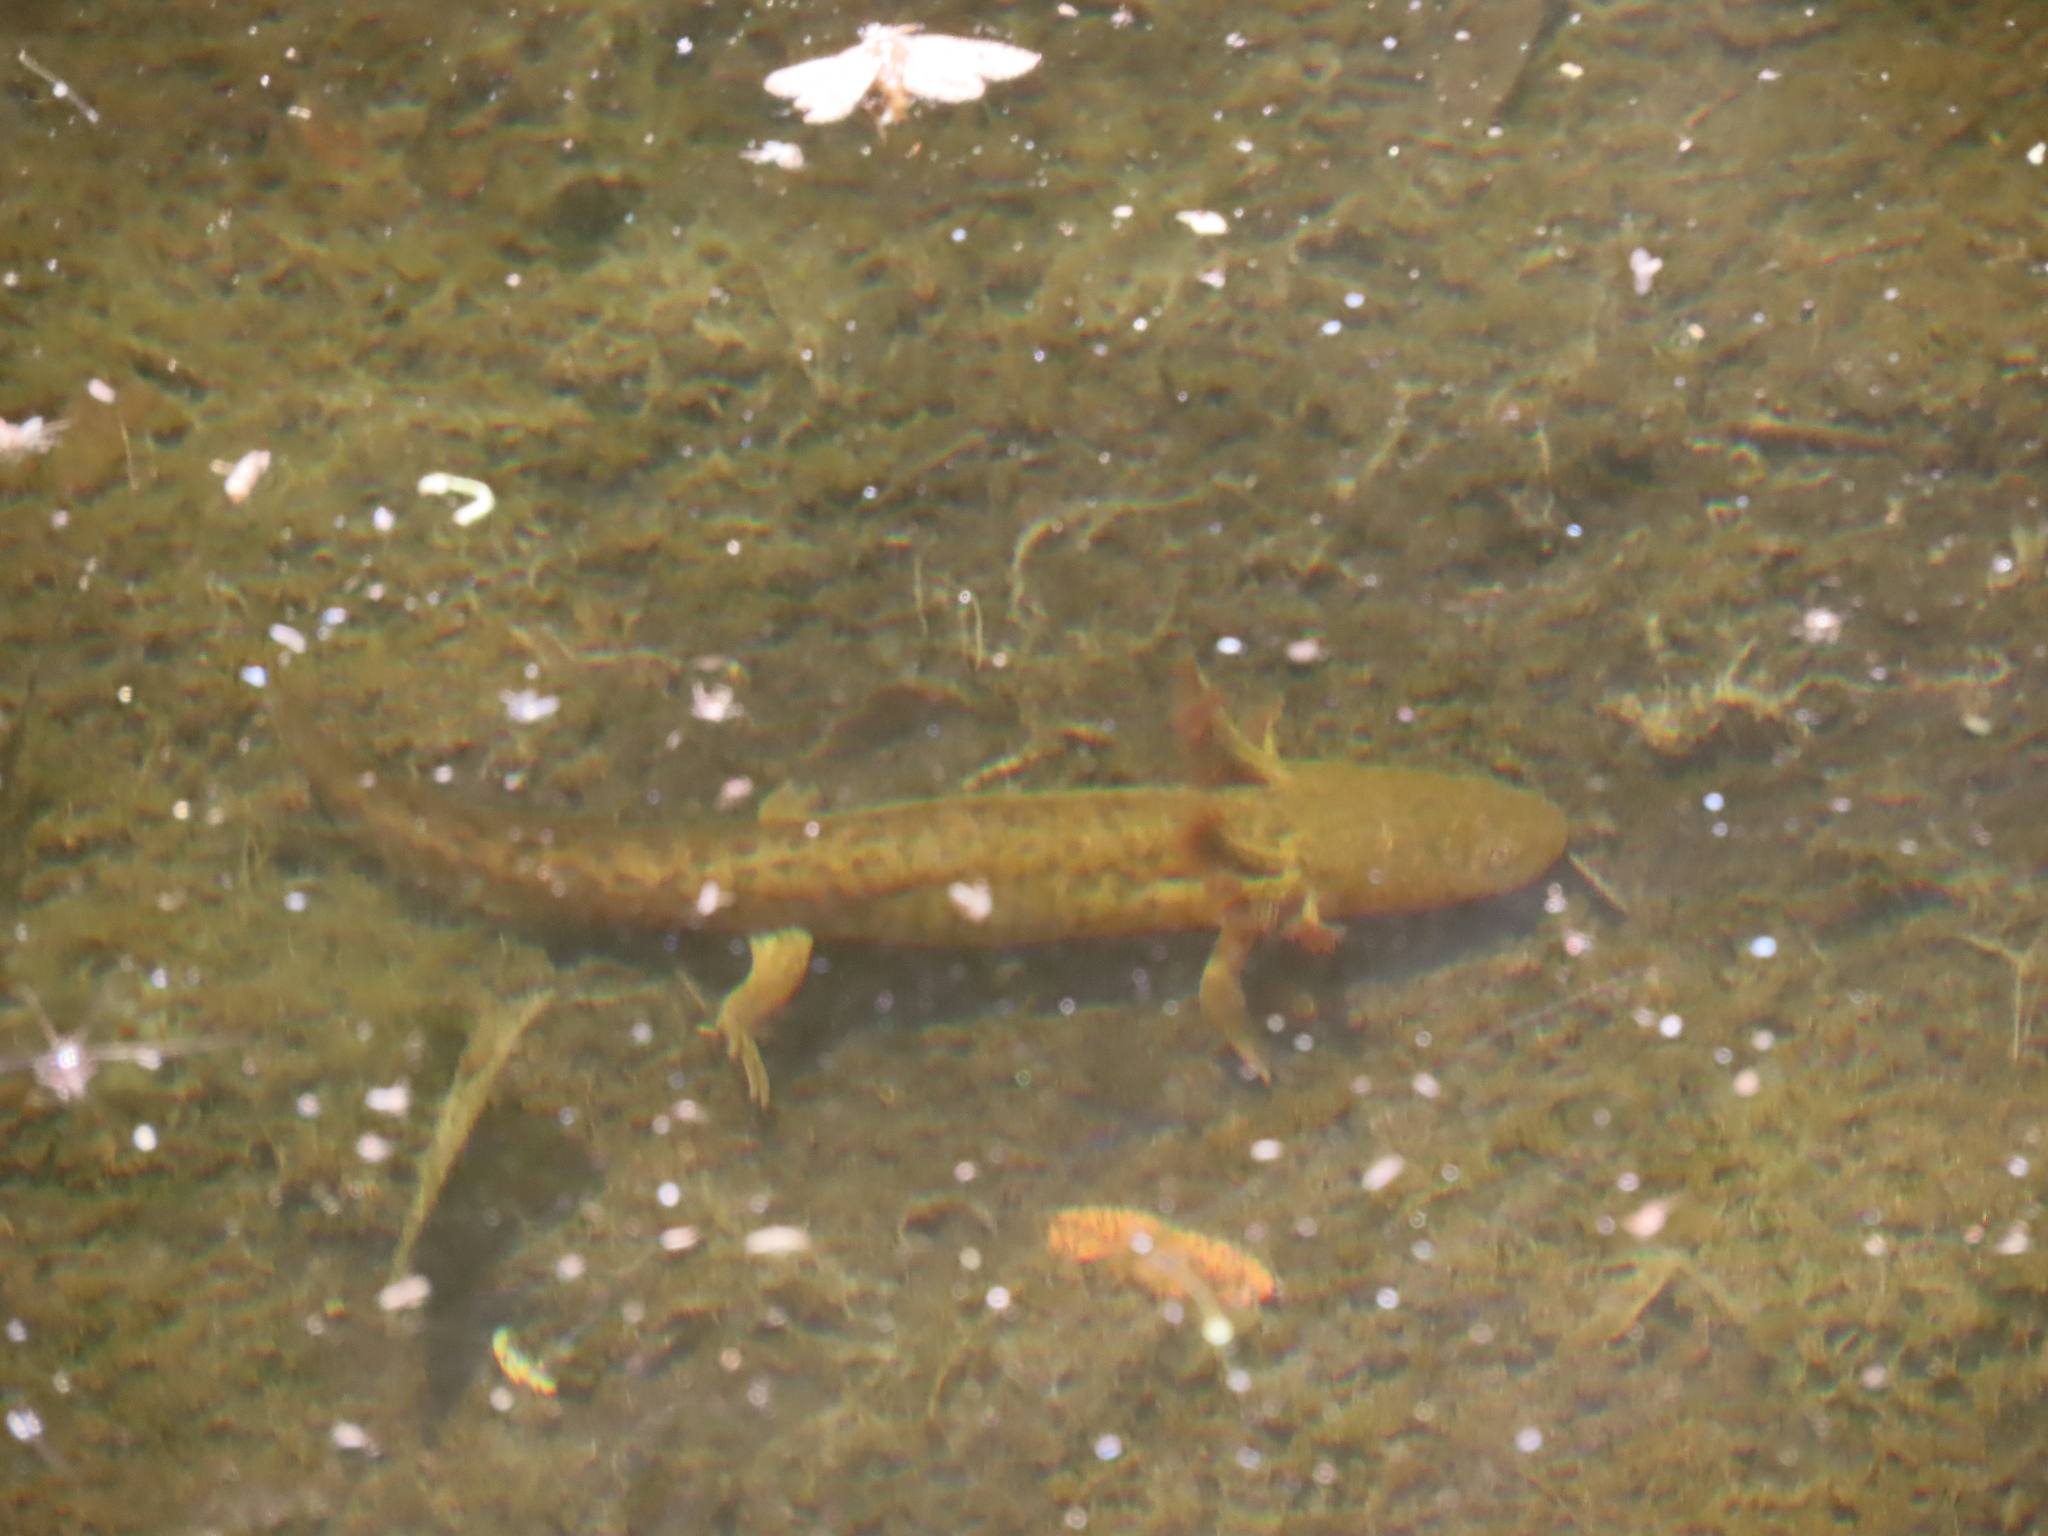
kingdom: Animalia
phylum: Chordata
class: Amphibia
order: Caudata
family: Ambystomatidae
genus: Ambystoma
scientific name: Ambystoma mavortium
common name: Western tiger salamander
